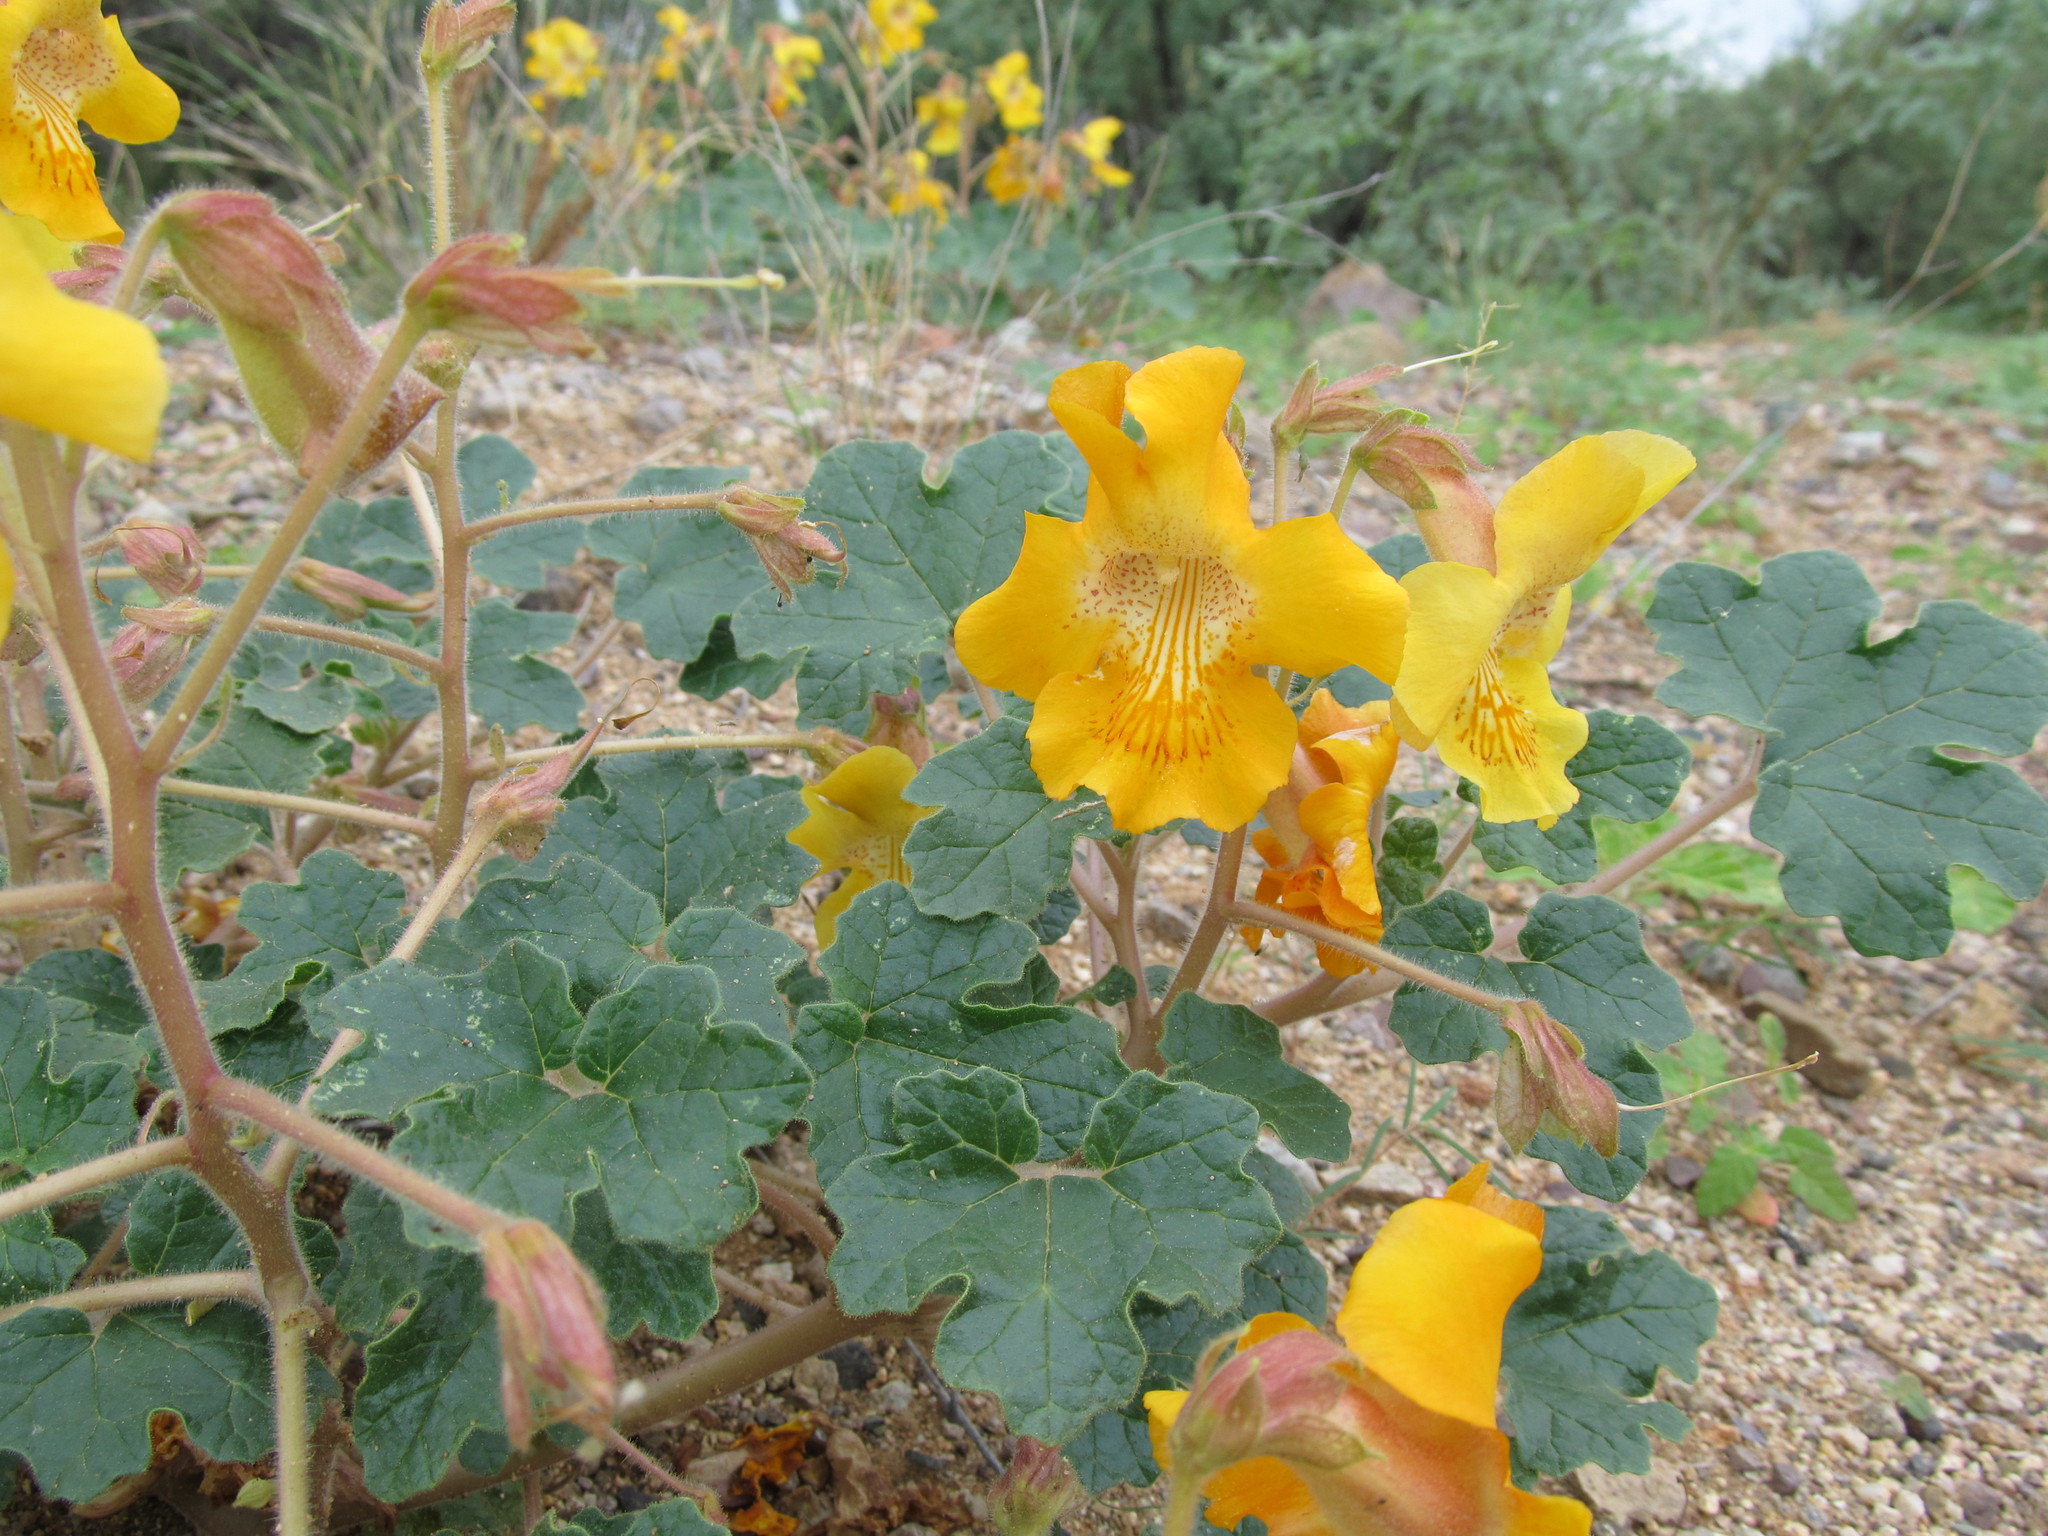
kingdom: Plantae
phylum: Tracheophyta
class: Magnoliopsida
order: Lamiales
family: Martyniaceae
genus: Proboscidea
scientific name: Proboscidea althaeifolia
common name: Desert unicorn-plant
